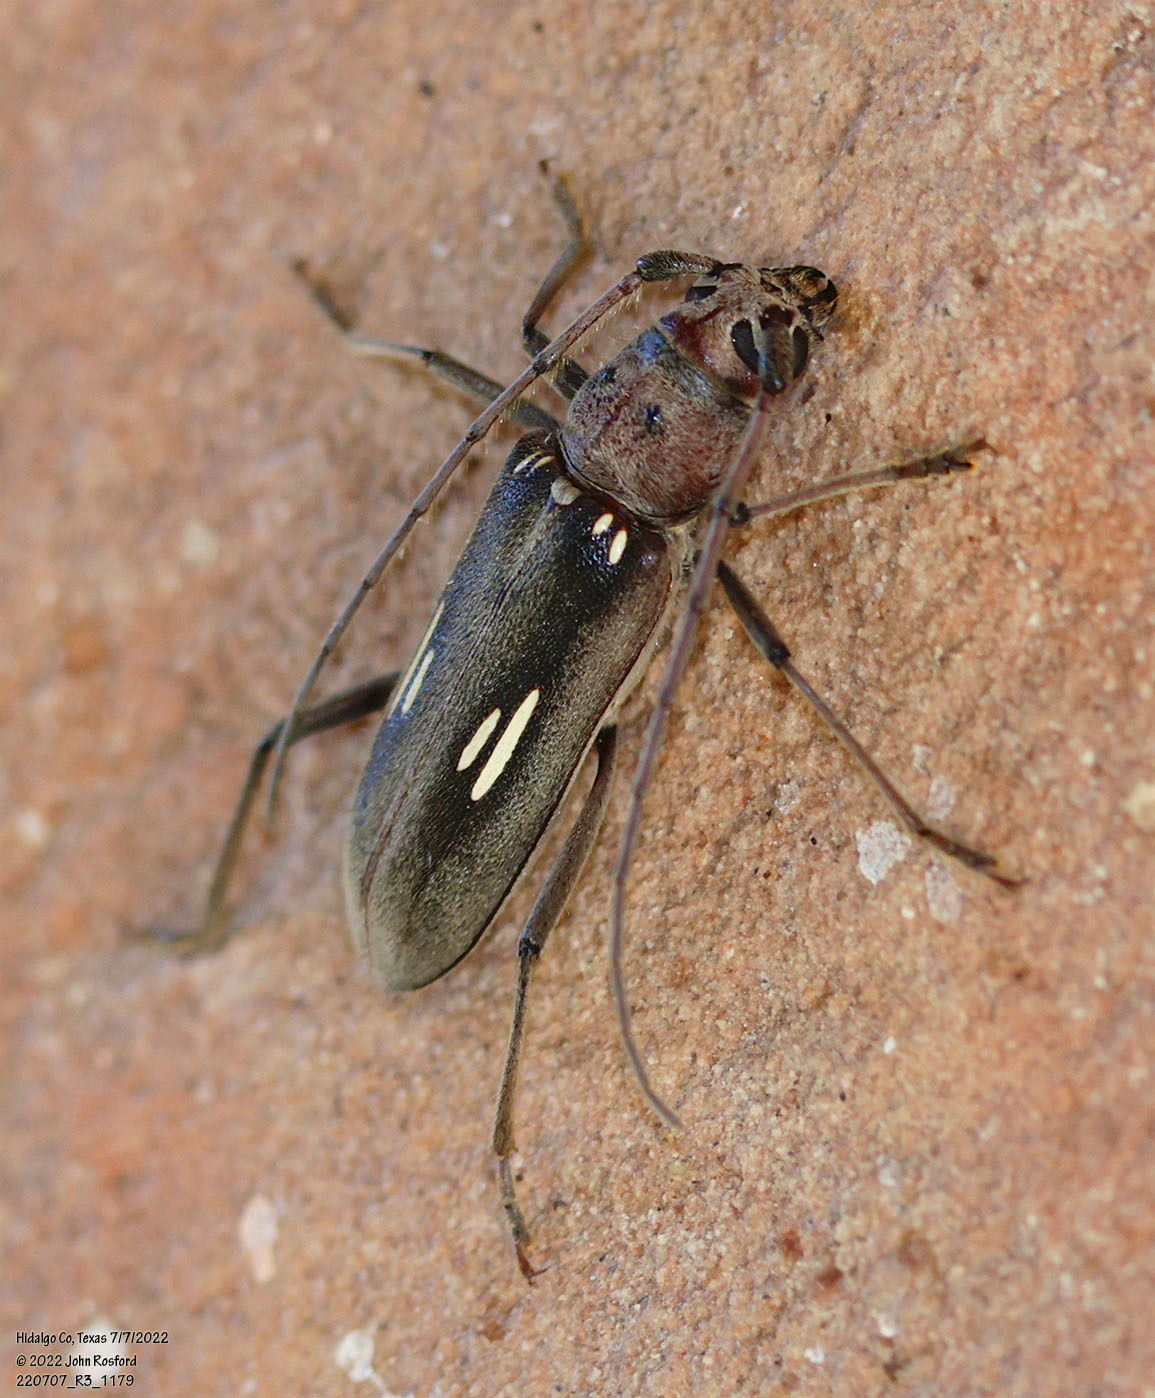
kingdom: Animalia
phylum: Arthropoda
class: Insecta
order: Coleoptera
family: Cerambycidae
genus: Eburia
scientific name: Eburia ovicollis
